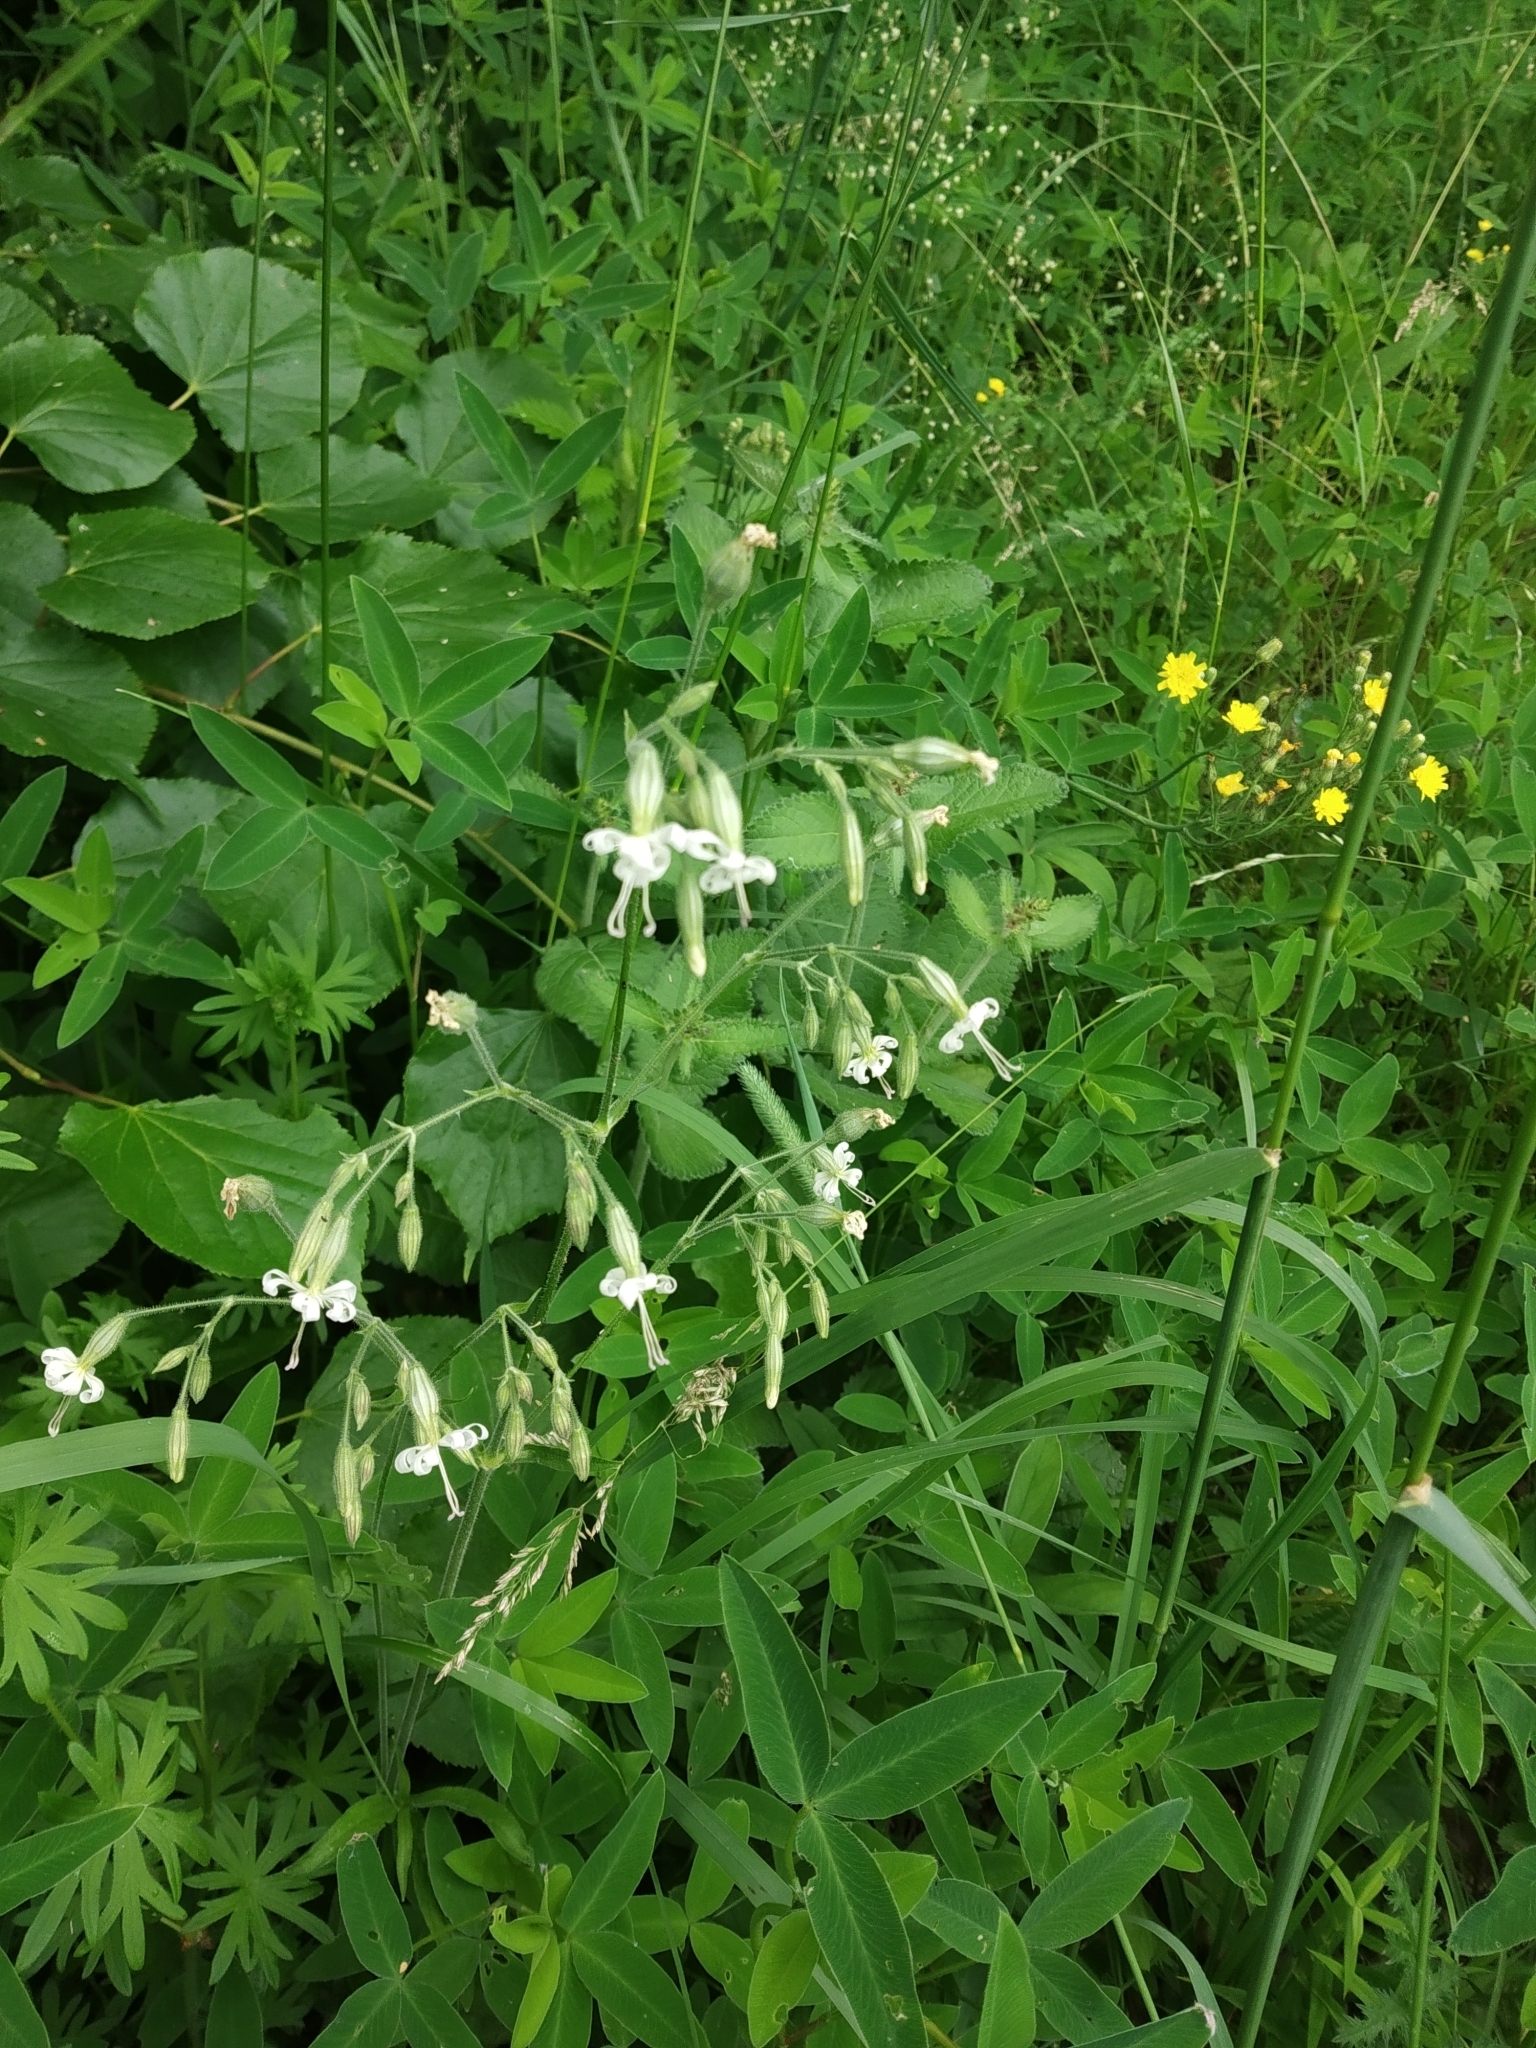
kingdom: Plantae
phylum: Tracheophyta
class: Magnoliopsida
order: Caryophyllales
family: Caryophyllaceae
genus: Silene
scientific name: Silene nutans
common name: Nottingham catchfly
